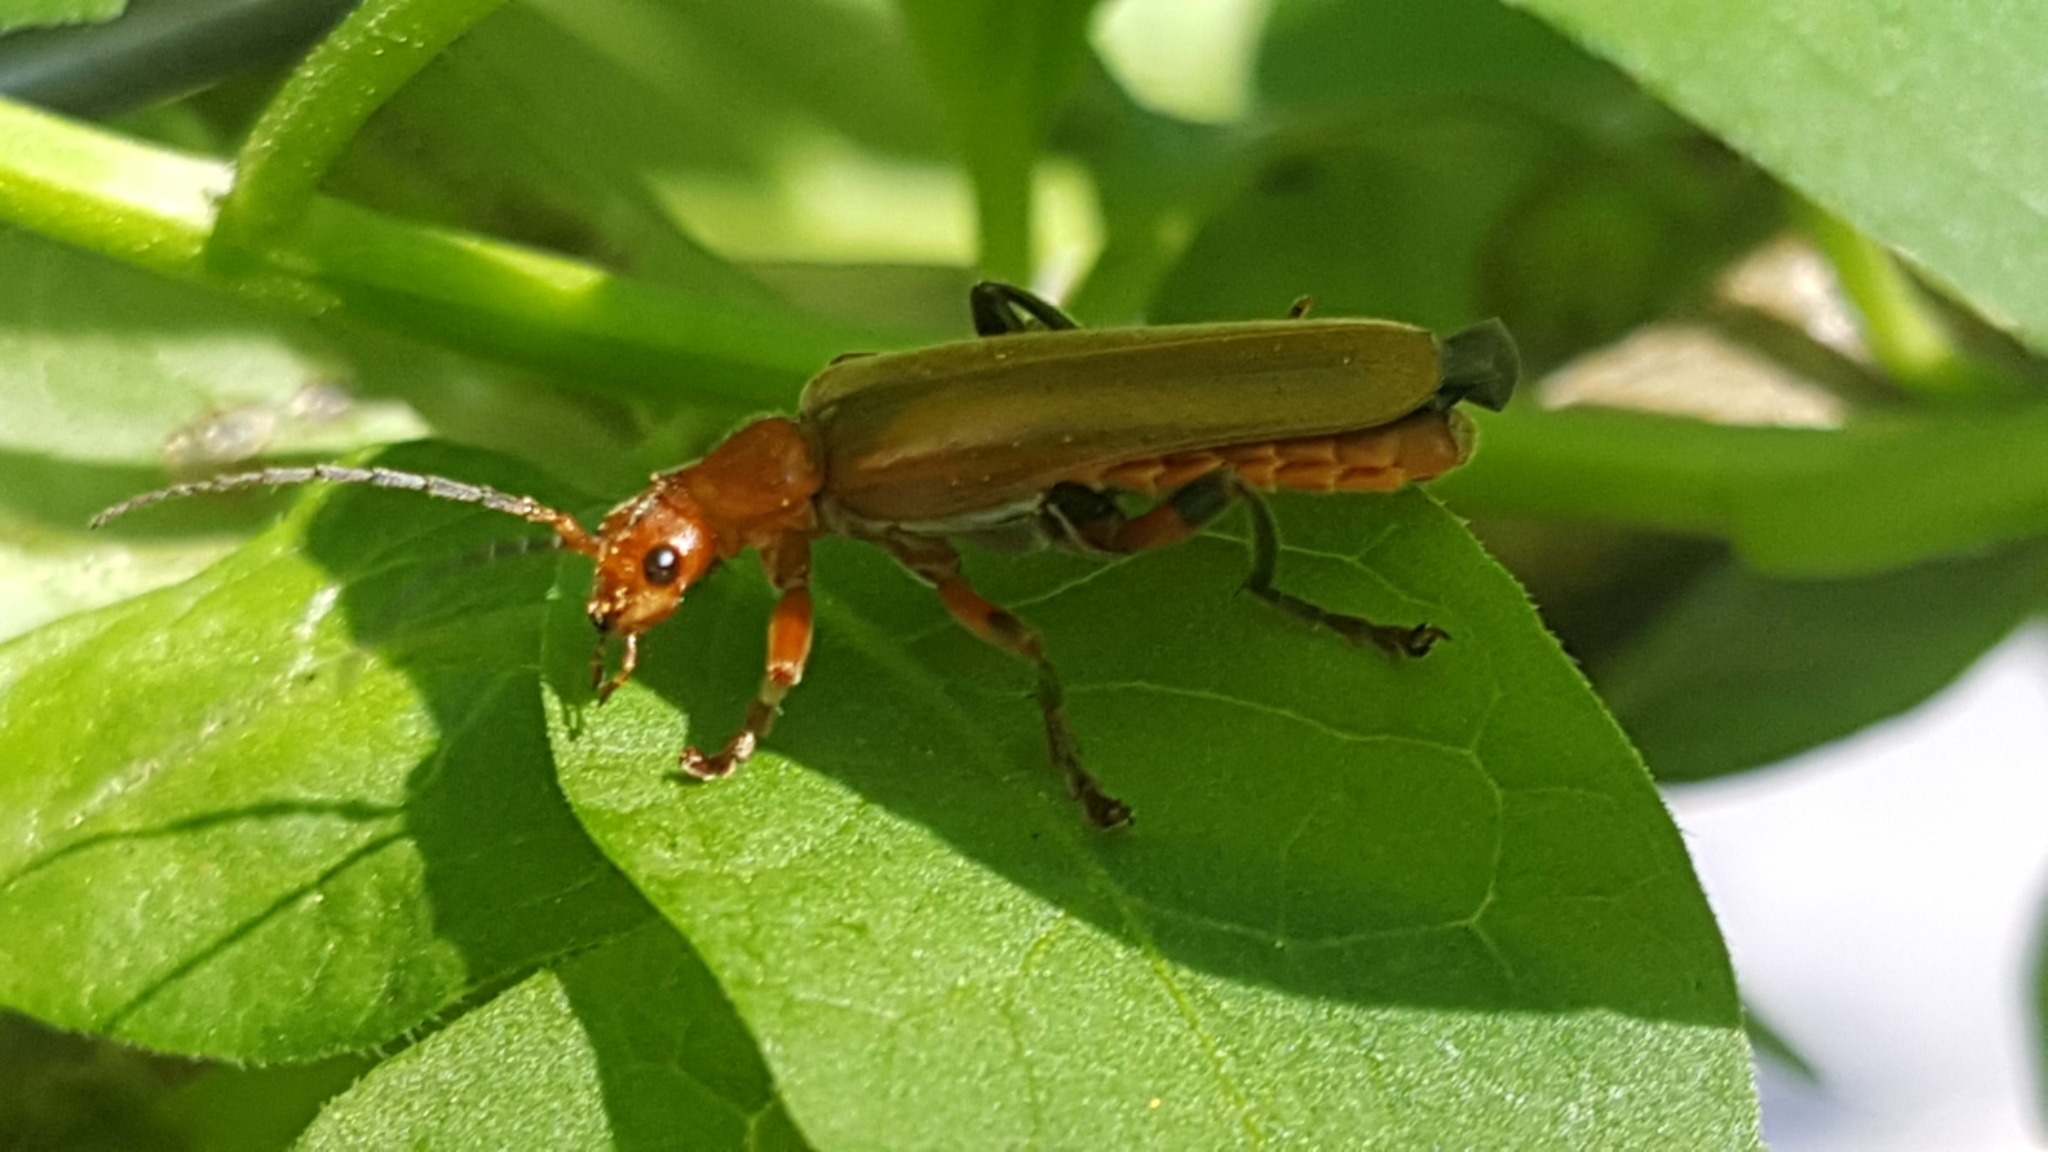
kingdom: Animalia
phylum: Arthropoda
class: Insecta
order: Coleoptera
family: Cantharidae
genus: Cantharis
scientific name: Cantharis livida
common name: Livid soldier beetle
